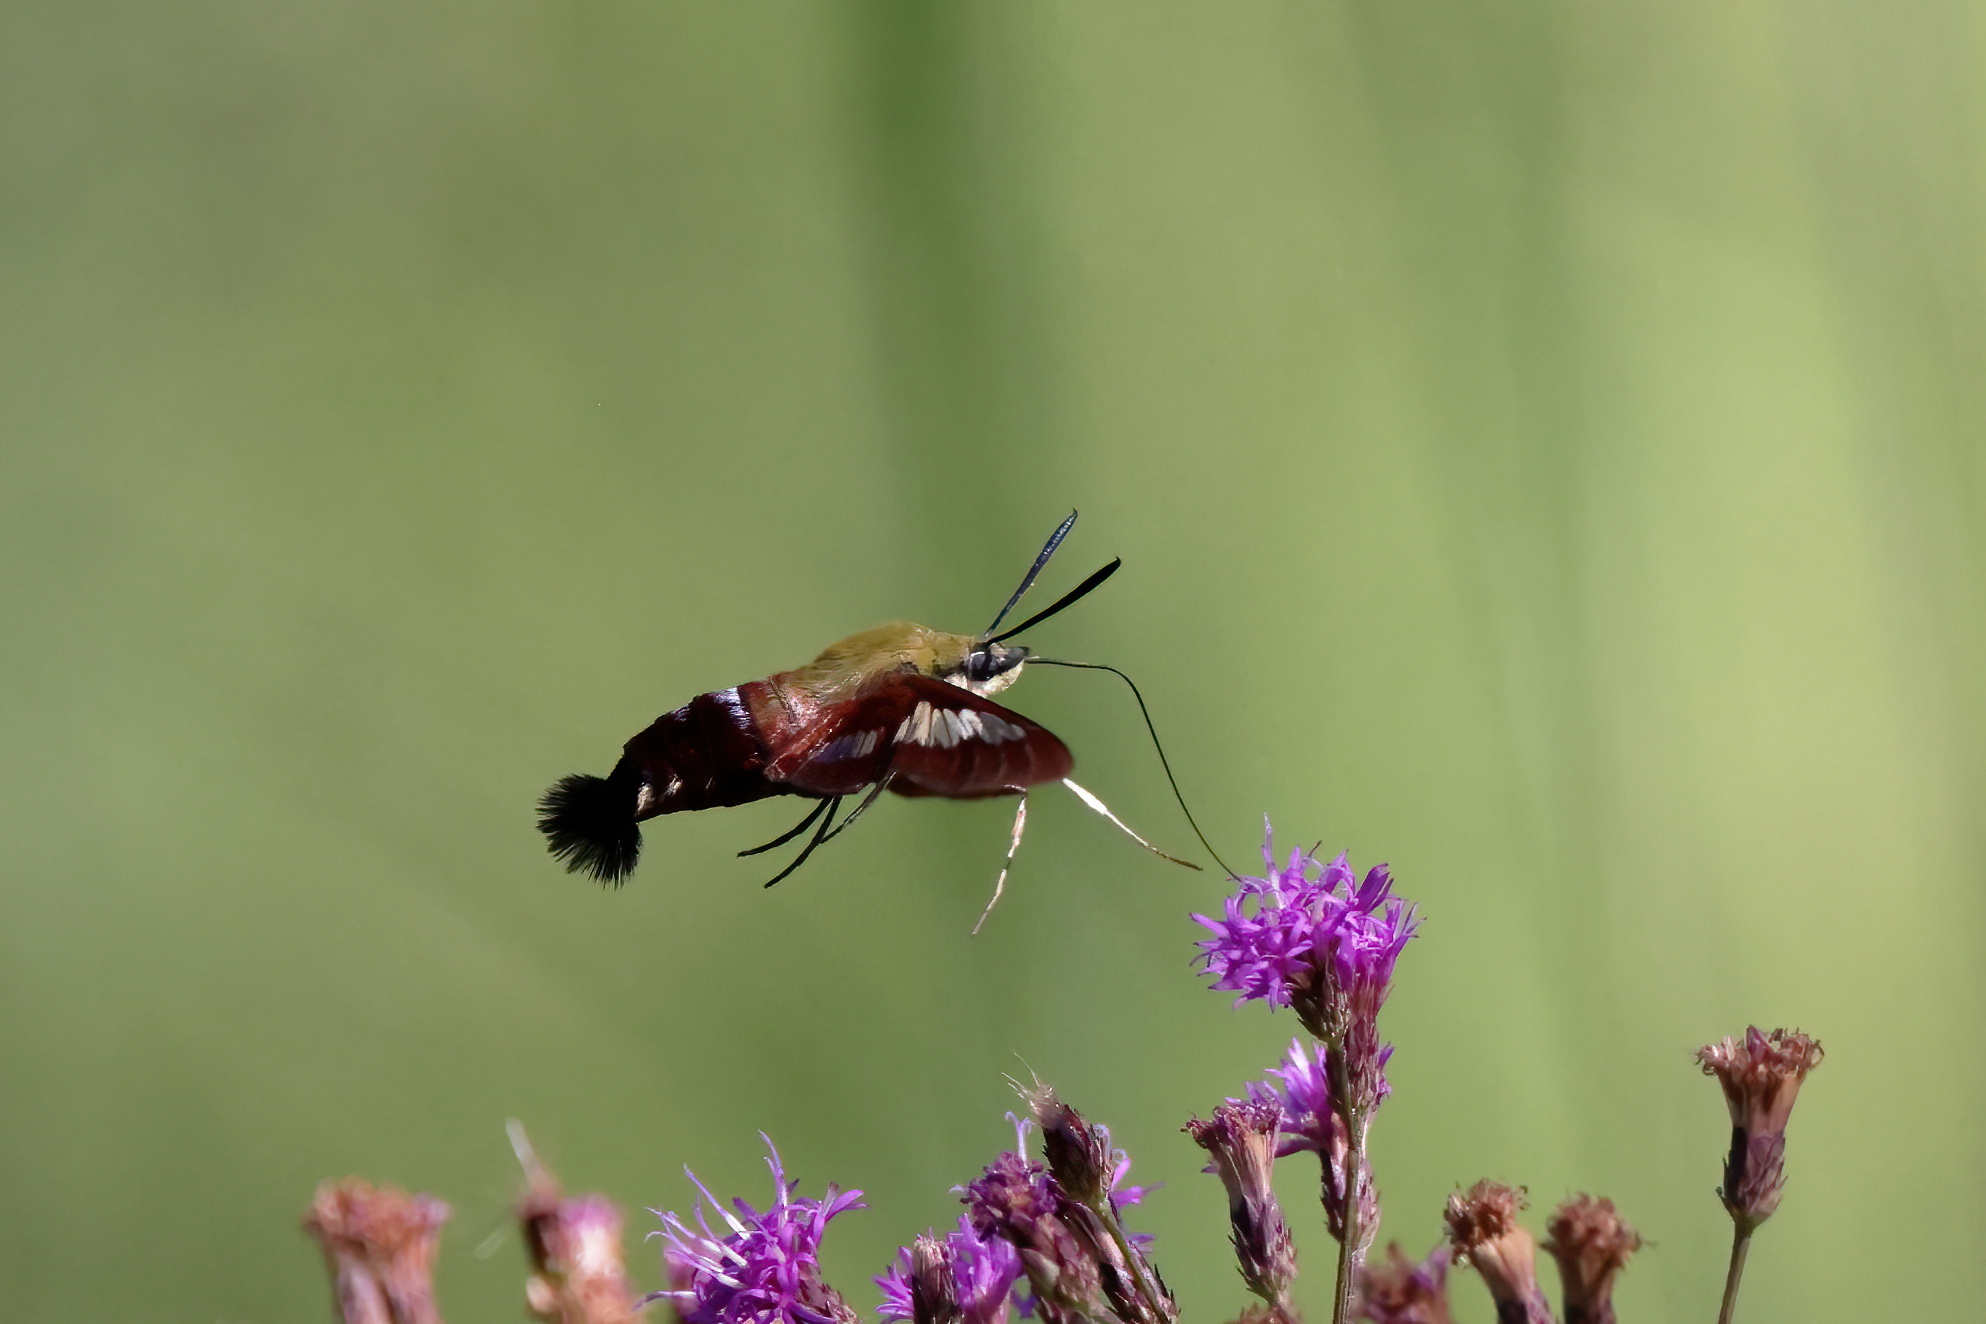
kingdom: Animalia
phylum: Arthropoda
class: Insecta
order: Lepidoptera
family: Sphingidae
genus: Hemaris
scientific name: Hemaris thysbe
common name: Common clear-wing
